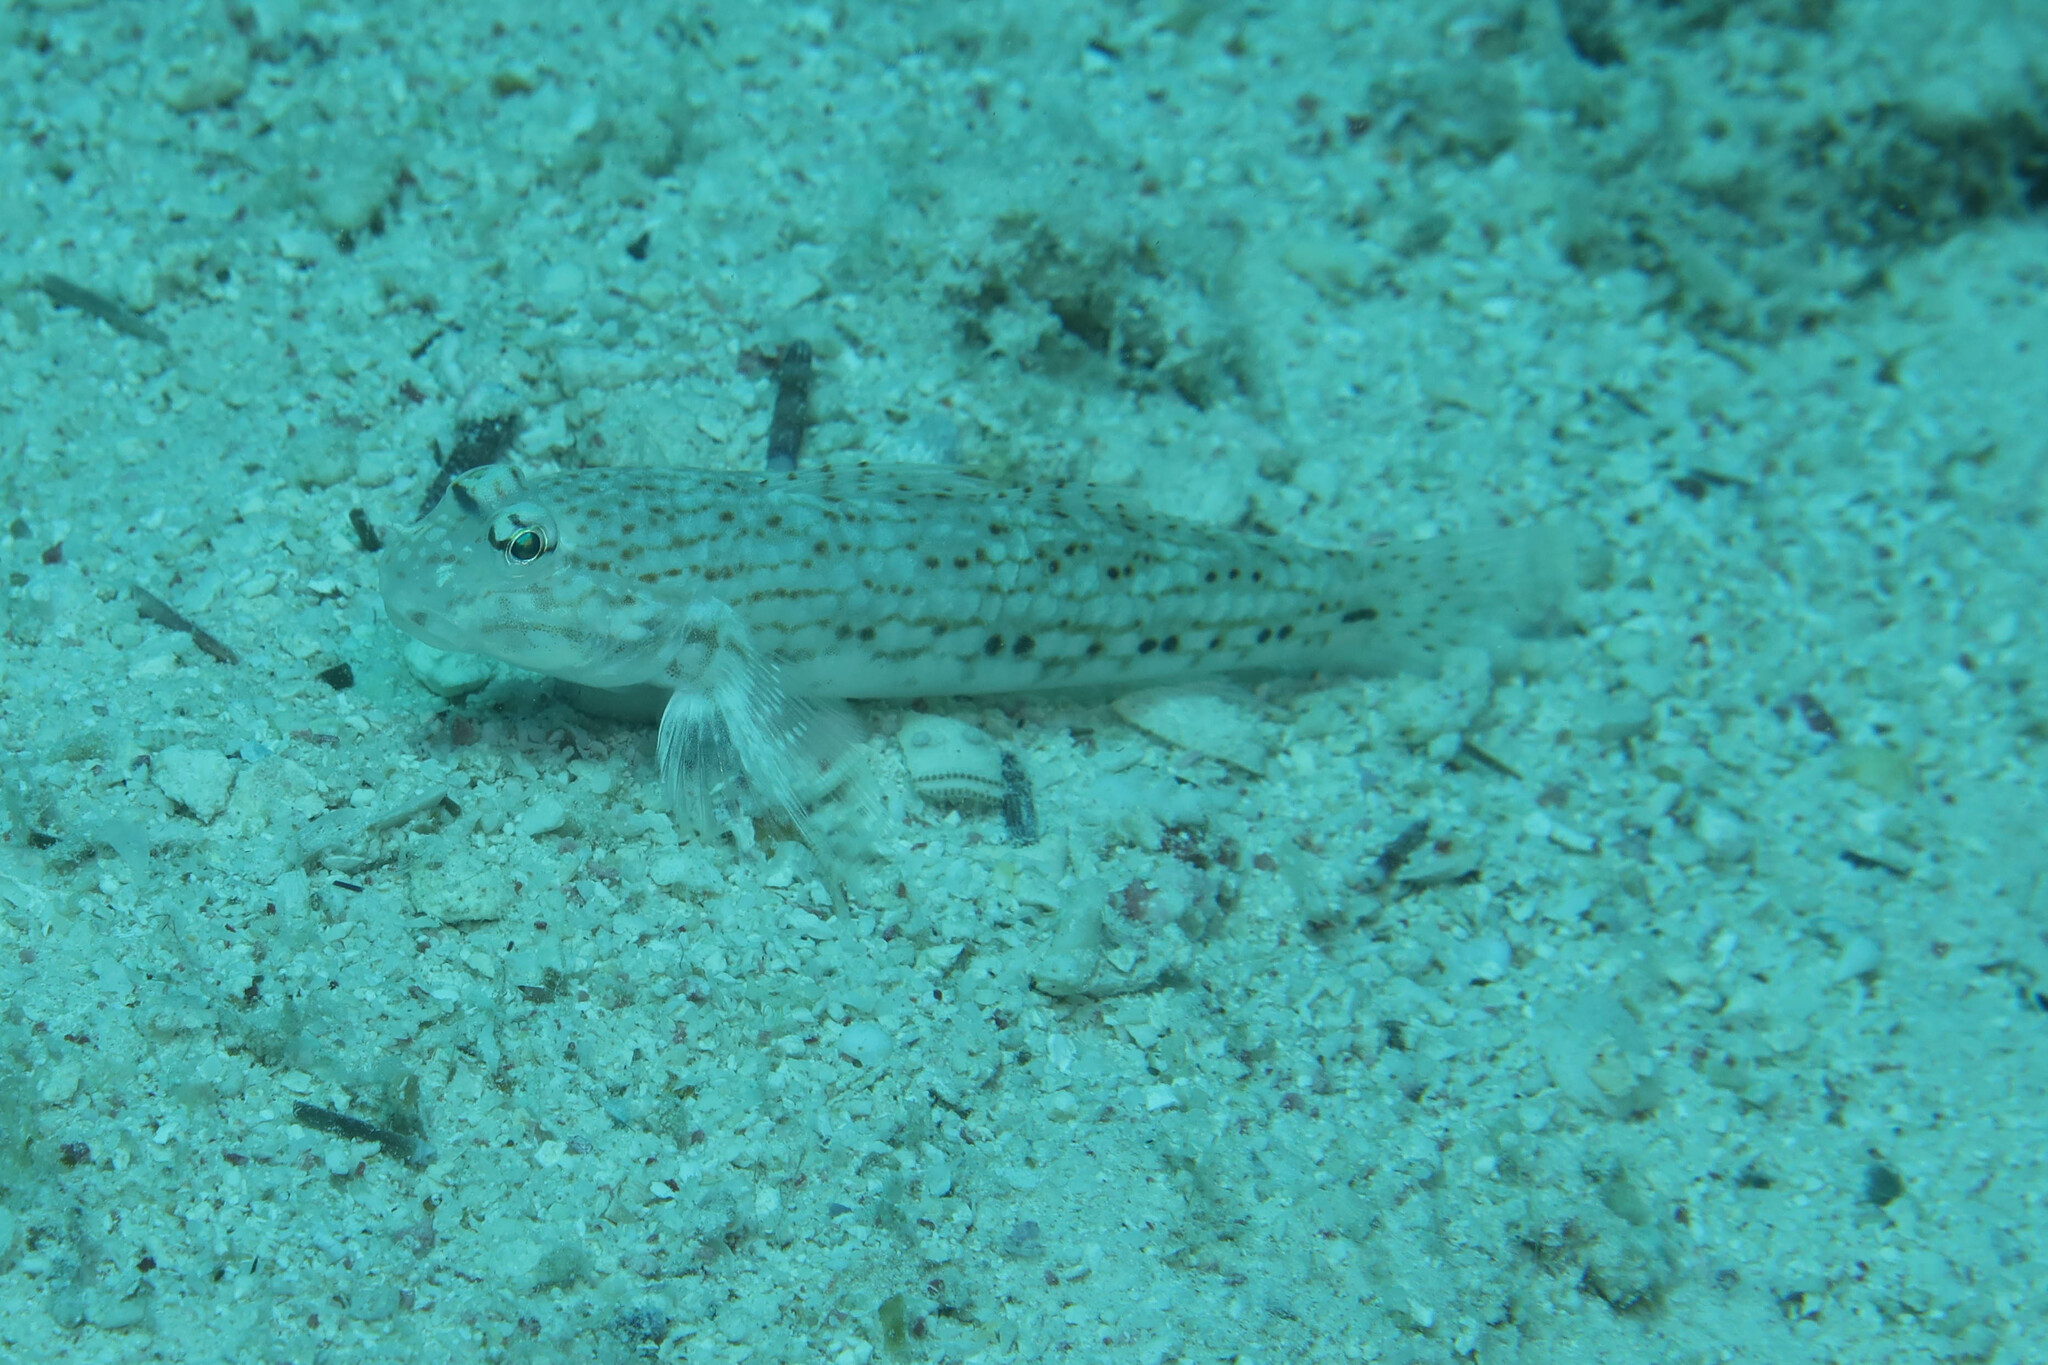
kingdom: Animalia
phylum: Chordata
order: Perciformes
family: Gobiidae
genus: Istigobius
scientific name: Istigobius decoratus
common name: Decorated goby
